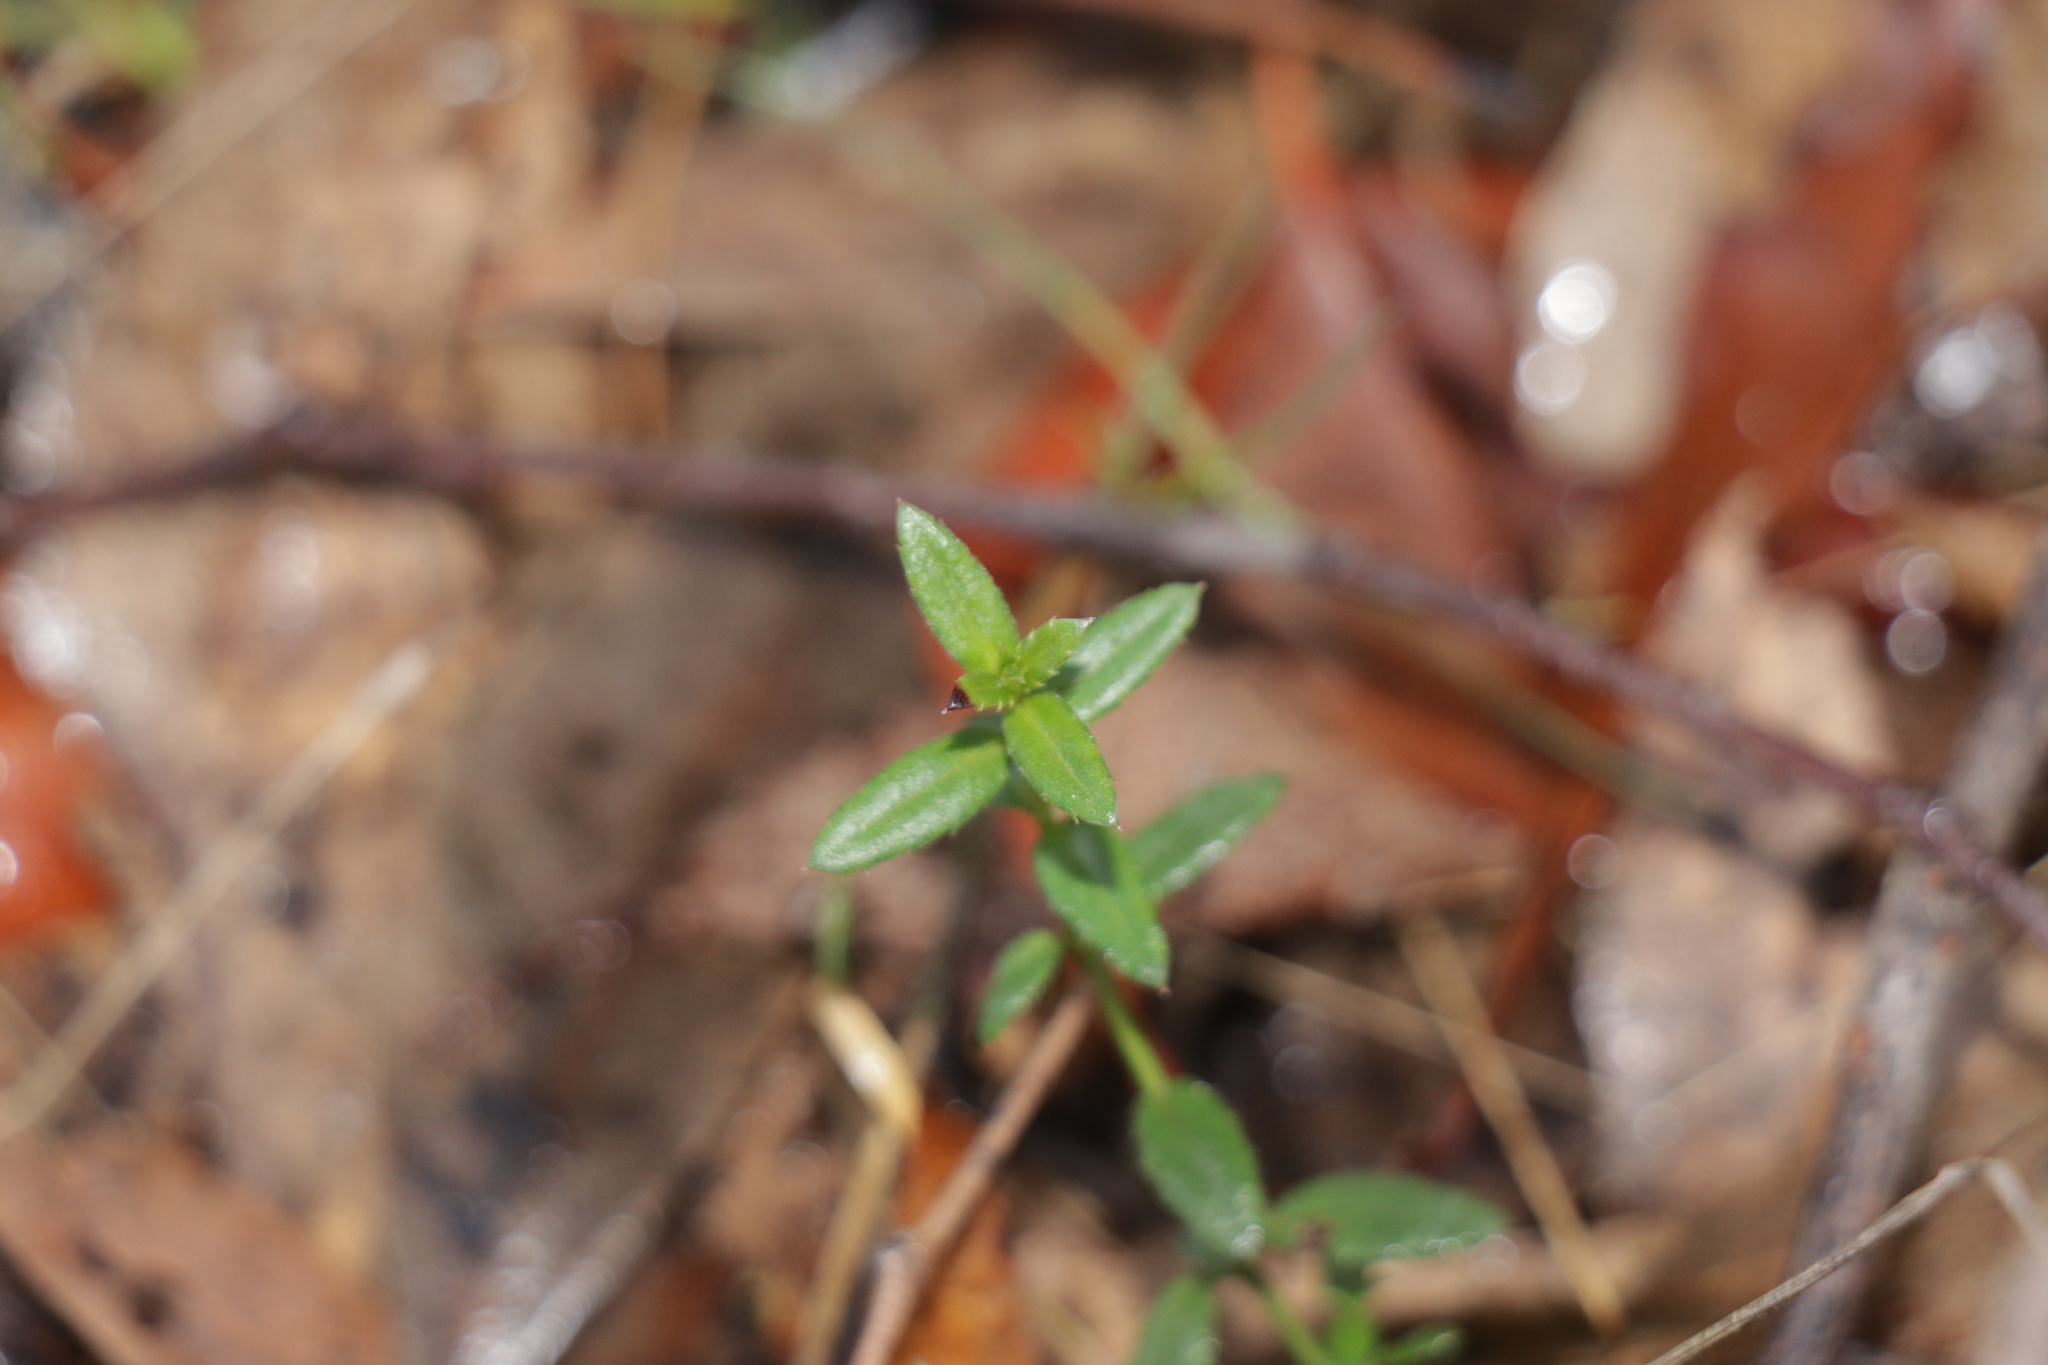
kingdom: Plantae
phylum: Tracheophyta
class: Magnoliopsida
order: Saxifragales
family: Haloragaceae
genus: Gonocarpus
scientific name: Gonocarpus tetragynus
